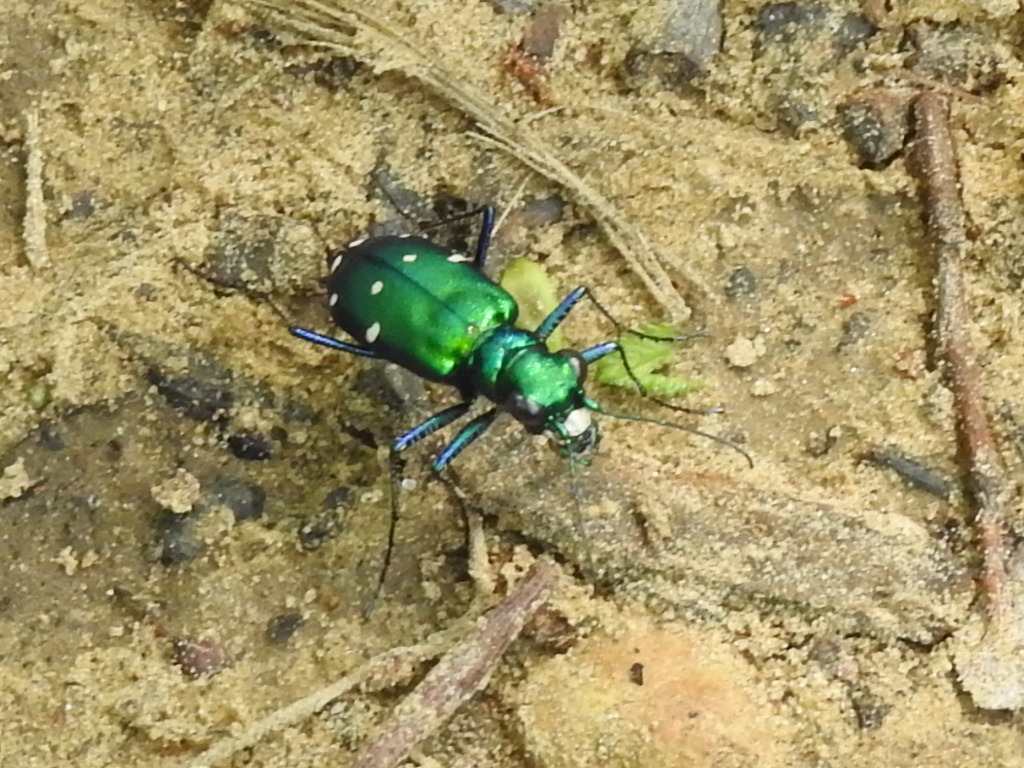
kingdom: Animalia
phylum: Arthropoda
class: Insecta
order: Coleoptera
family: Carabidae
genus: Cicindela
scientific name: Cicindela sexguttata
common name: Six-spotted tiger beetle
